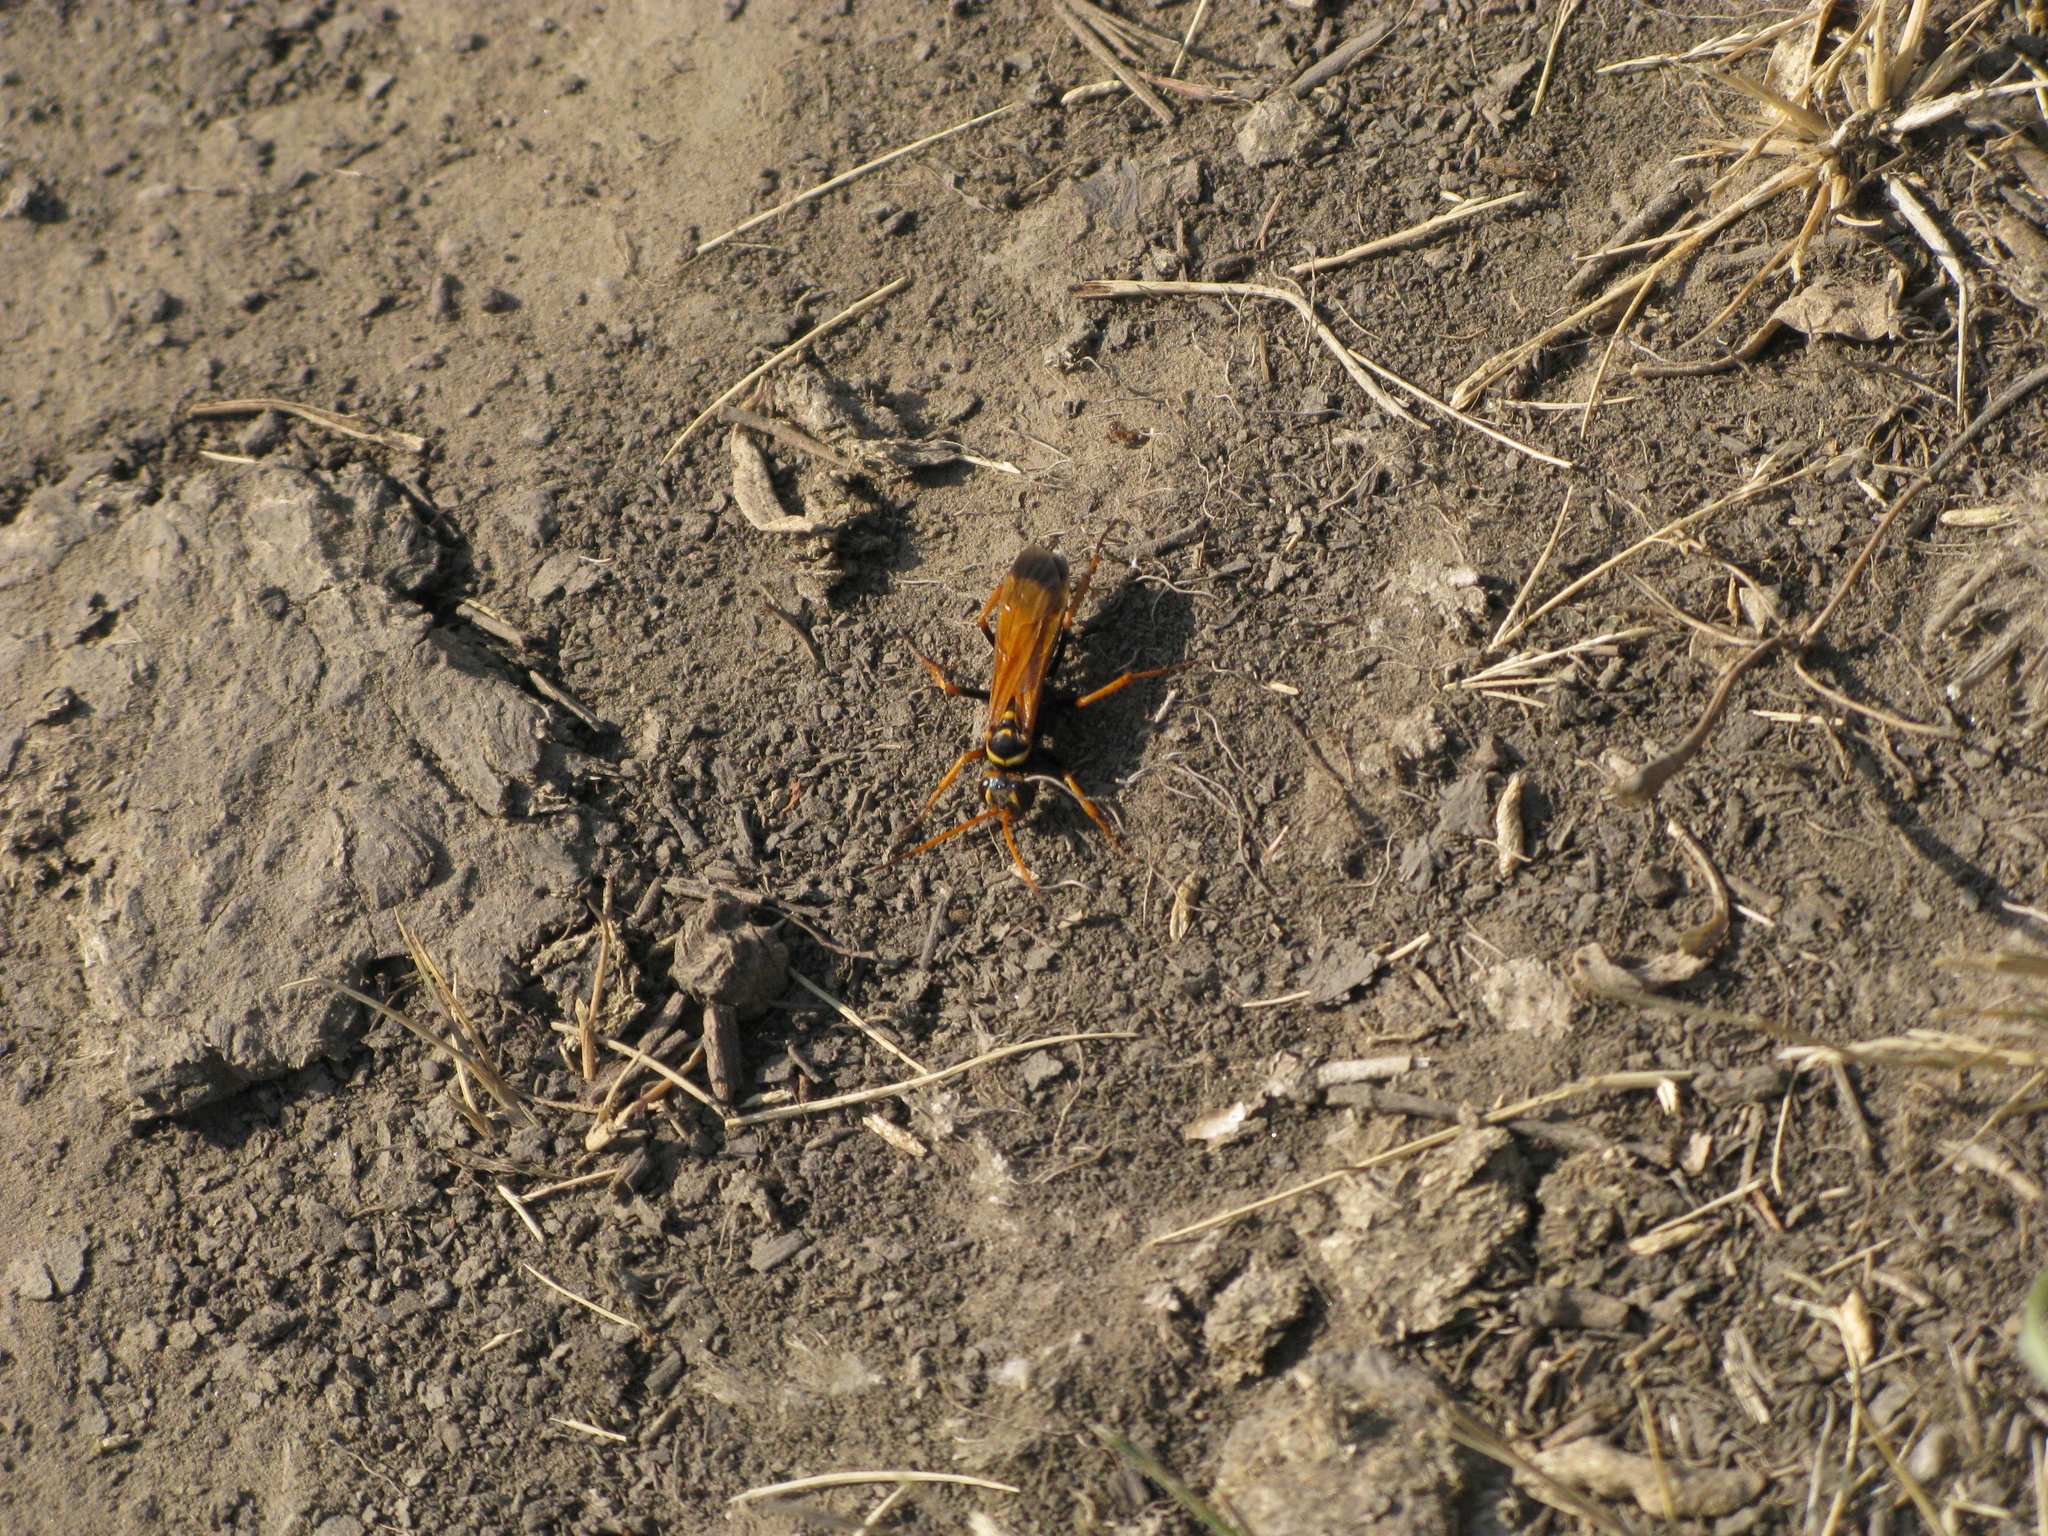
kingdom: Animalia
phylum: Arthropoda
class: Insecta
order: Hymenoptera
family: Pompilidae
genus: Parabatozonus
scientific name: Parabatozonus lacerticida
